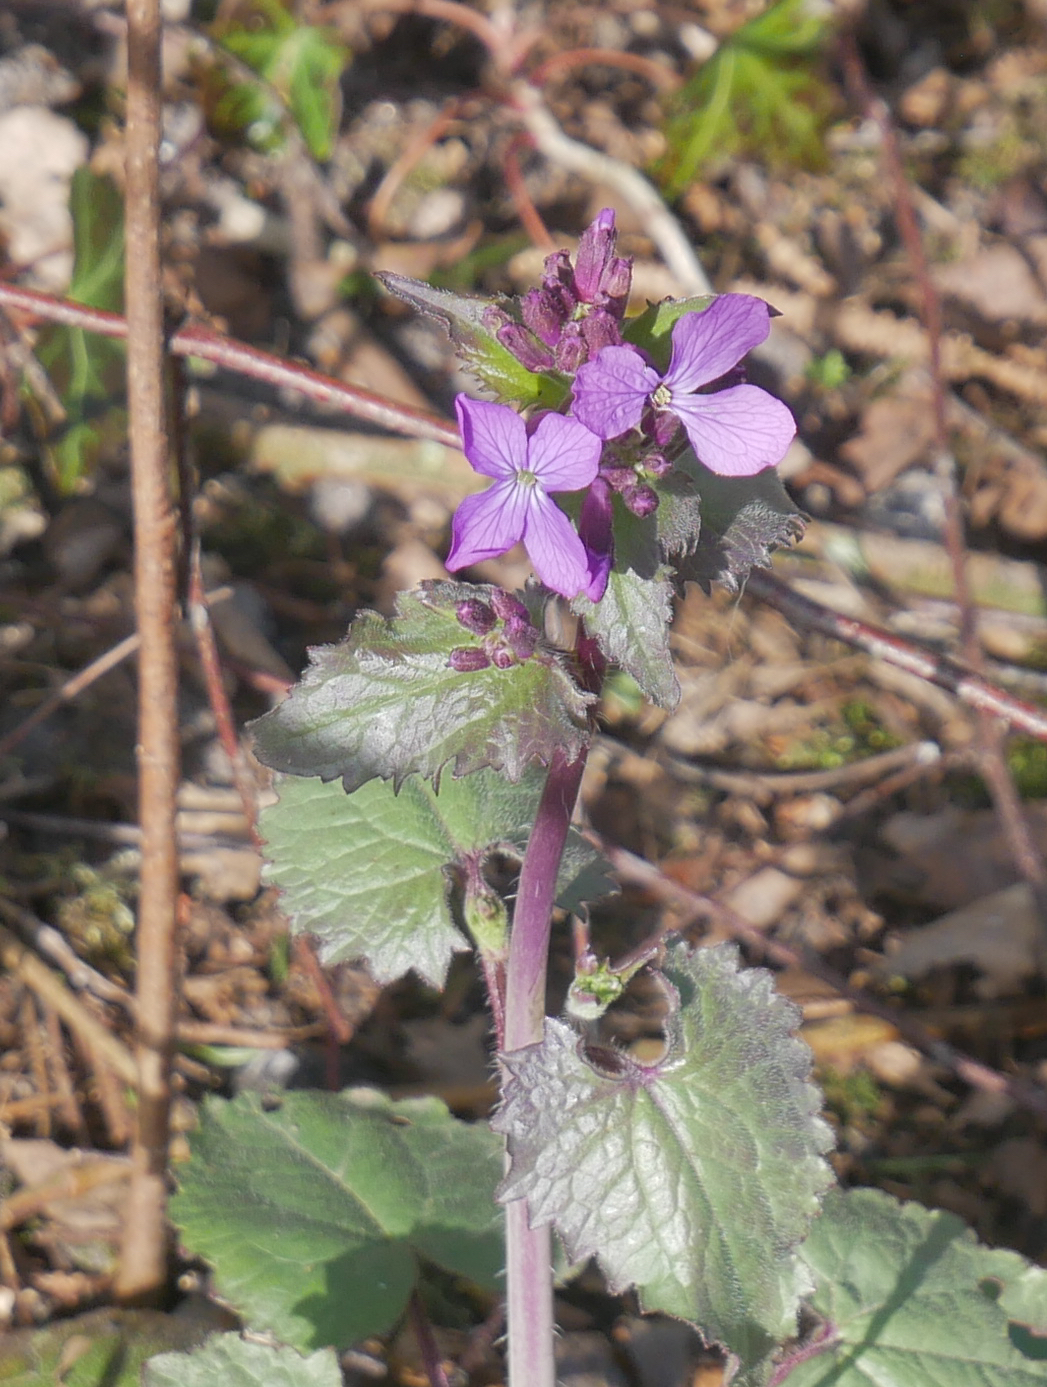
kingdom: Plantae
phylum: Tracheophyta
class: Magnoliopsida
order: Brassicales
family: Brassicaceae
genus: Lunaria
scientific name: Lunaria annua
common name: Honesty
